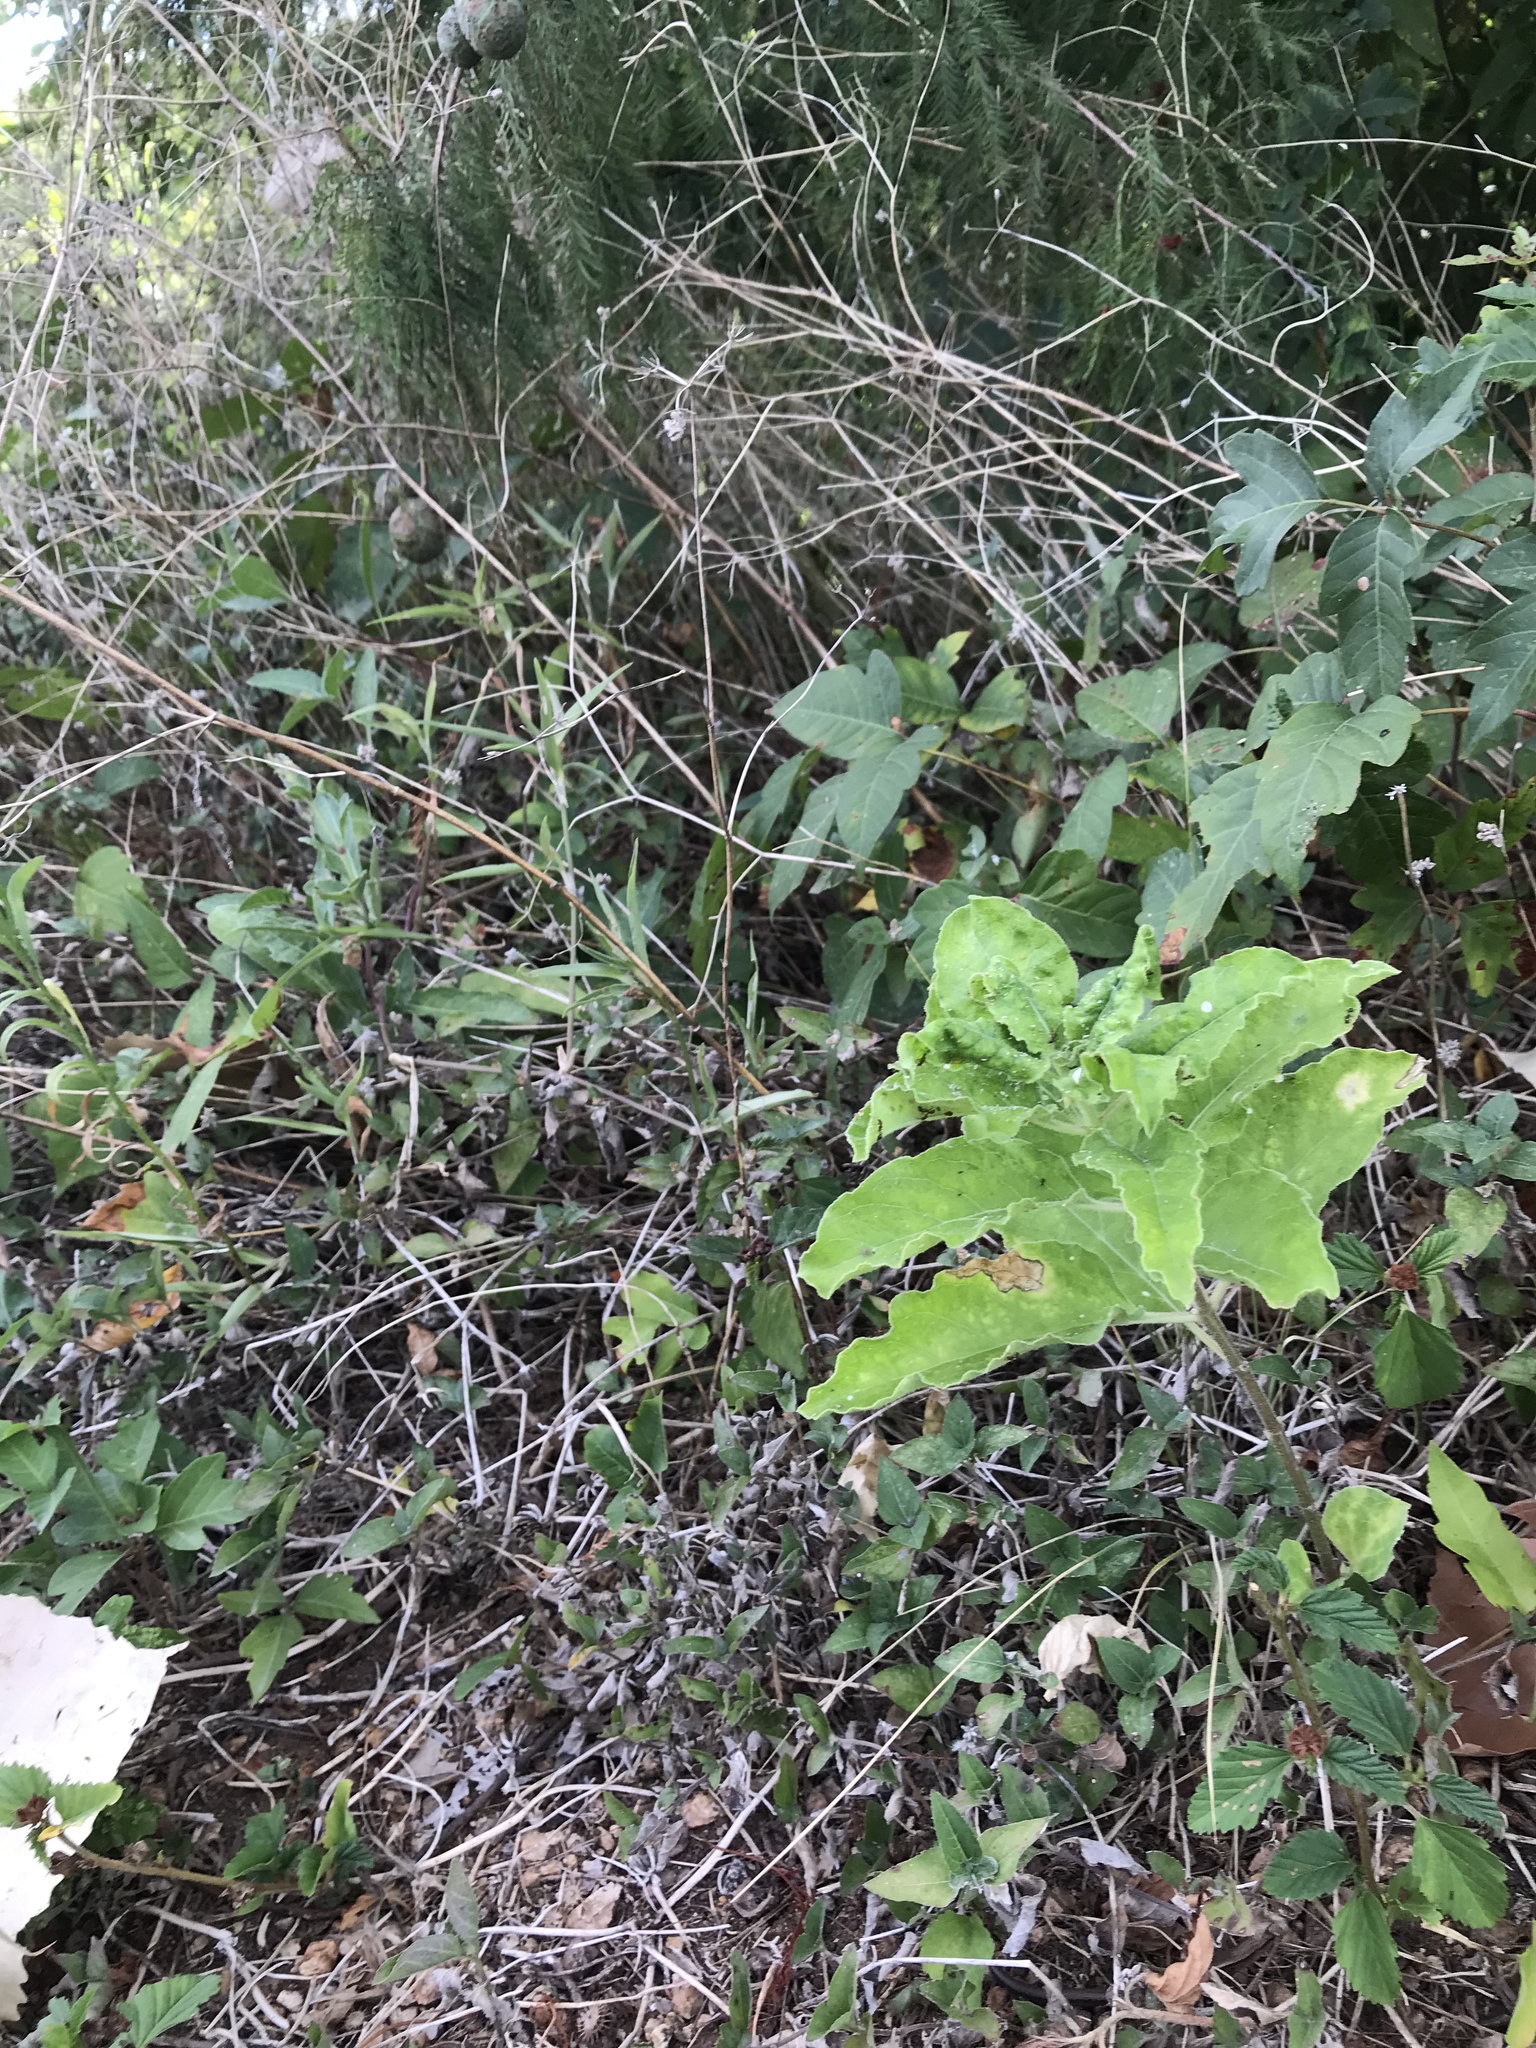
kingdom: Plantae
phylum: Tracheophyta
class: Magnoliopsida
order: Gentianales
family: Apocynaceae
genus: Asclepias
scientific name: Asclepias oenotheroides
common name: Zizotes milkweed
